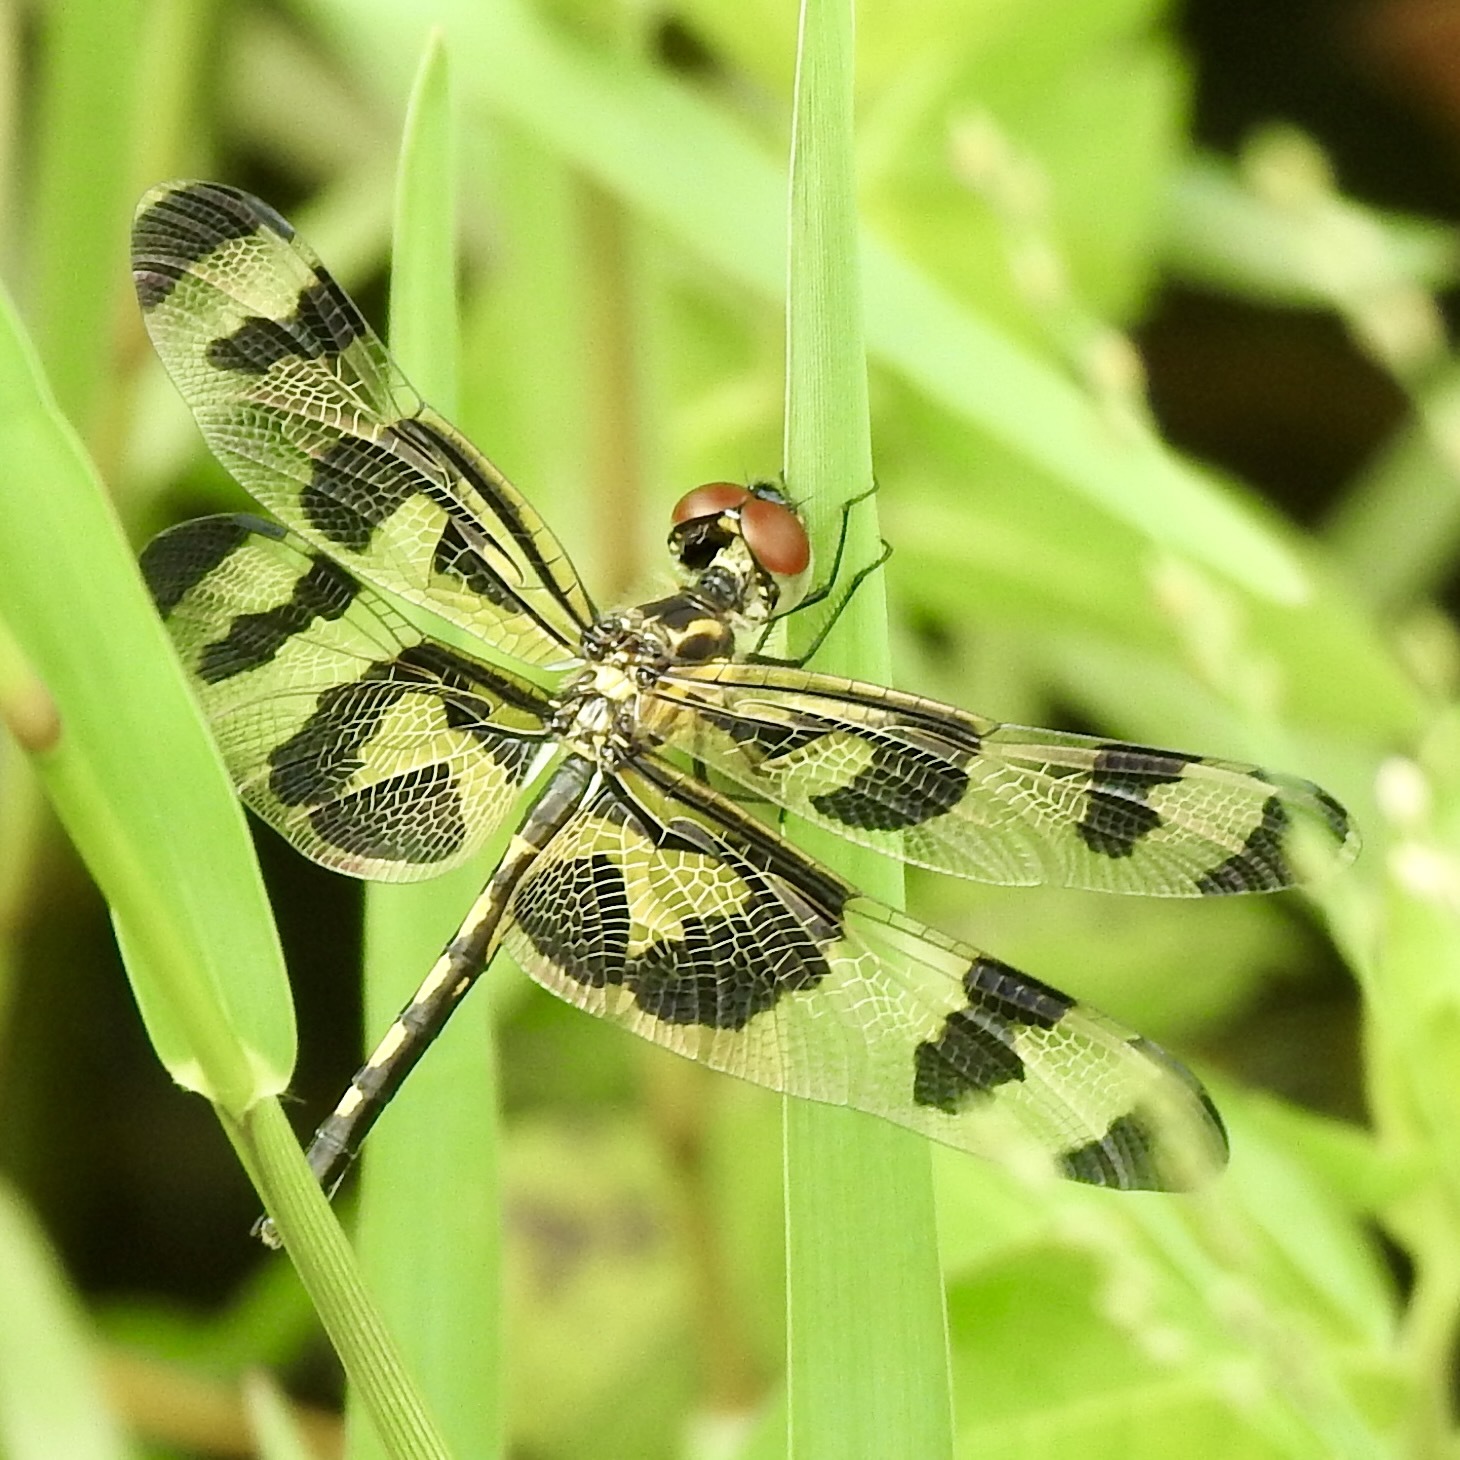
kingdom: Animalia
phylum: Arthropoda
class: Insecta
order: Odonata
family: Libellulidae
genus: Celithemis
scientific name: Celithemis fasciata
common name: Banded pennant
